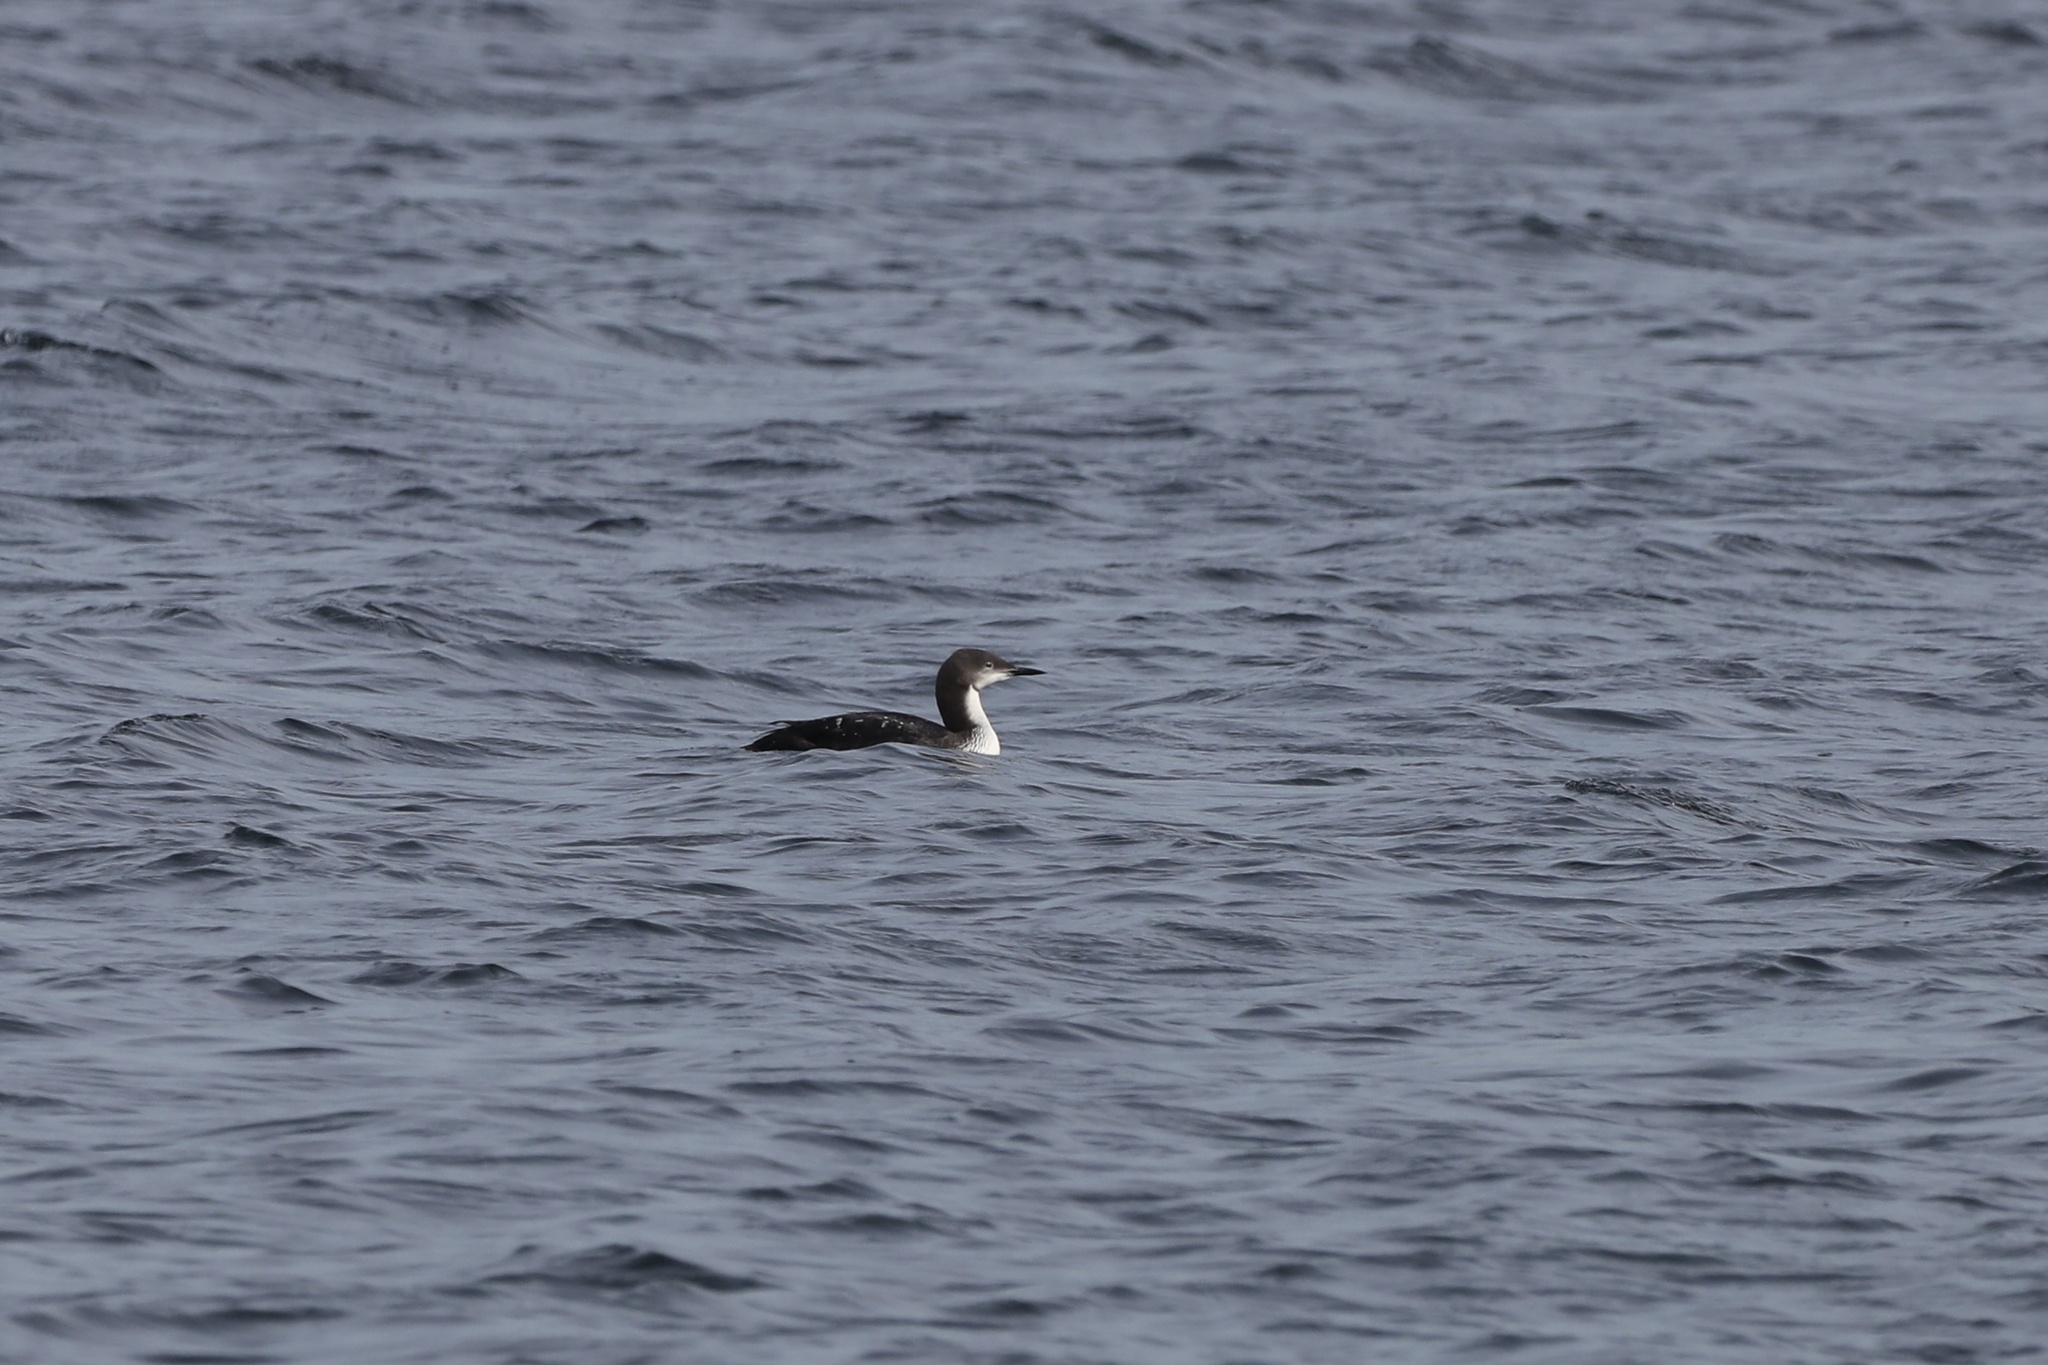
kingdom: Animalia
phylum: Chordata
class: Aves
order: Gaviiformes
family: Gaviidae
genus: Gavia
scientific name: Gavia pacifica
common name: Pacific loon
